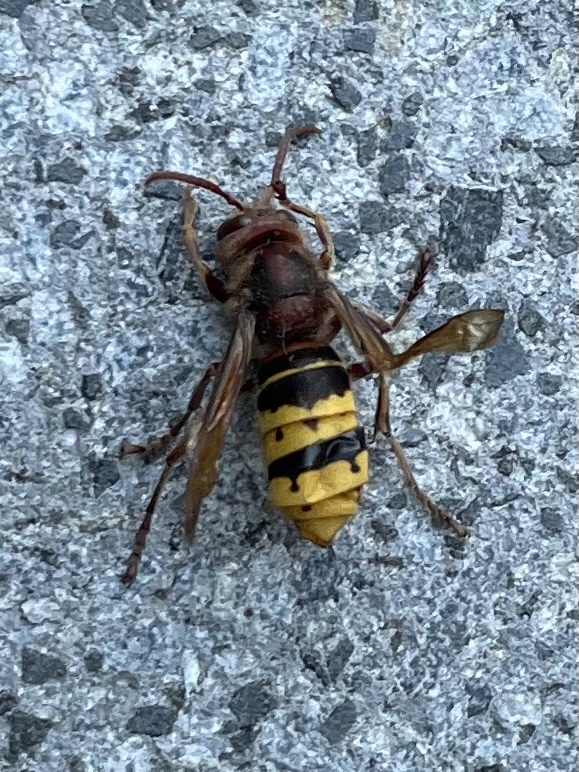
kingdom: Animalia
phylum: Arthropoda
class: Insecta
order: Hymenoptera
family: Vespidae
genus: Vespa
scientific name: Vespa crabro
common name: Hornet
